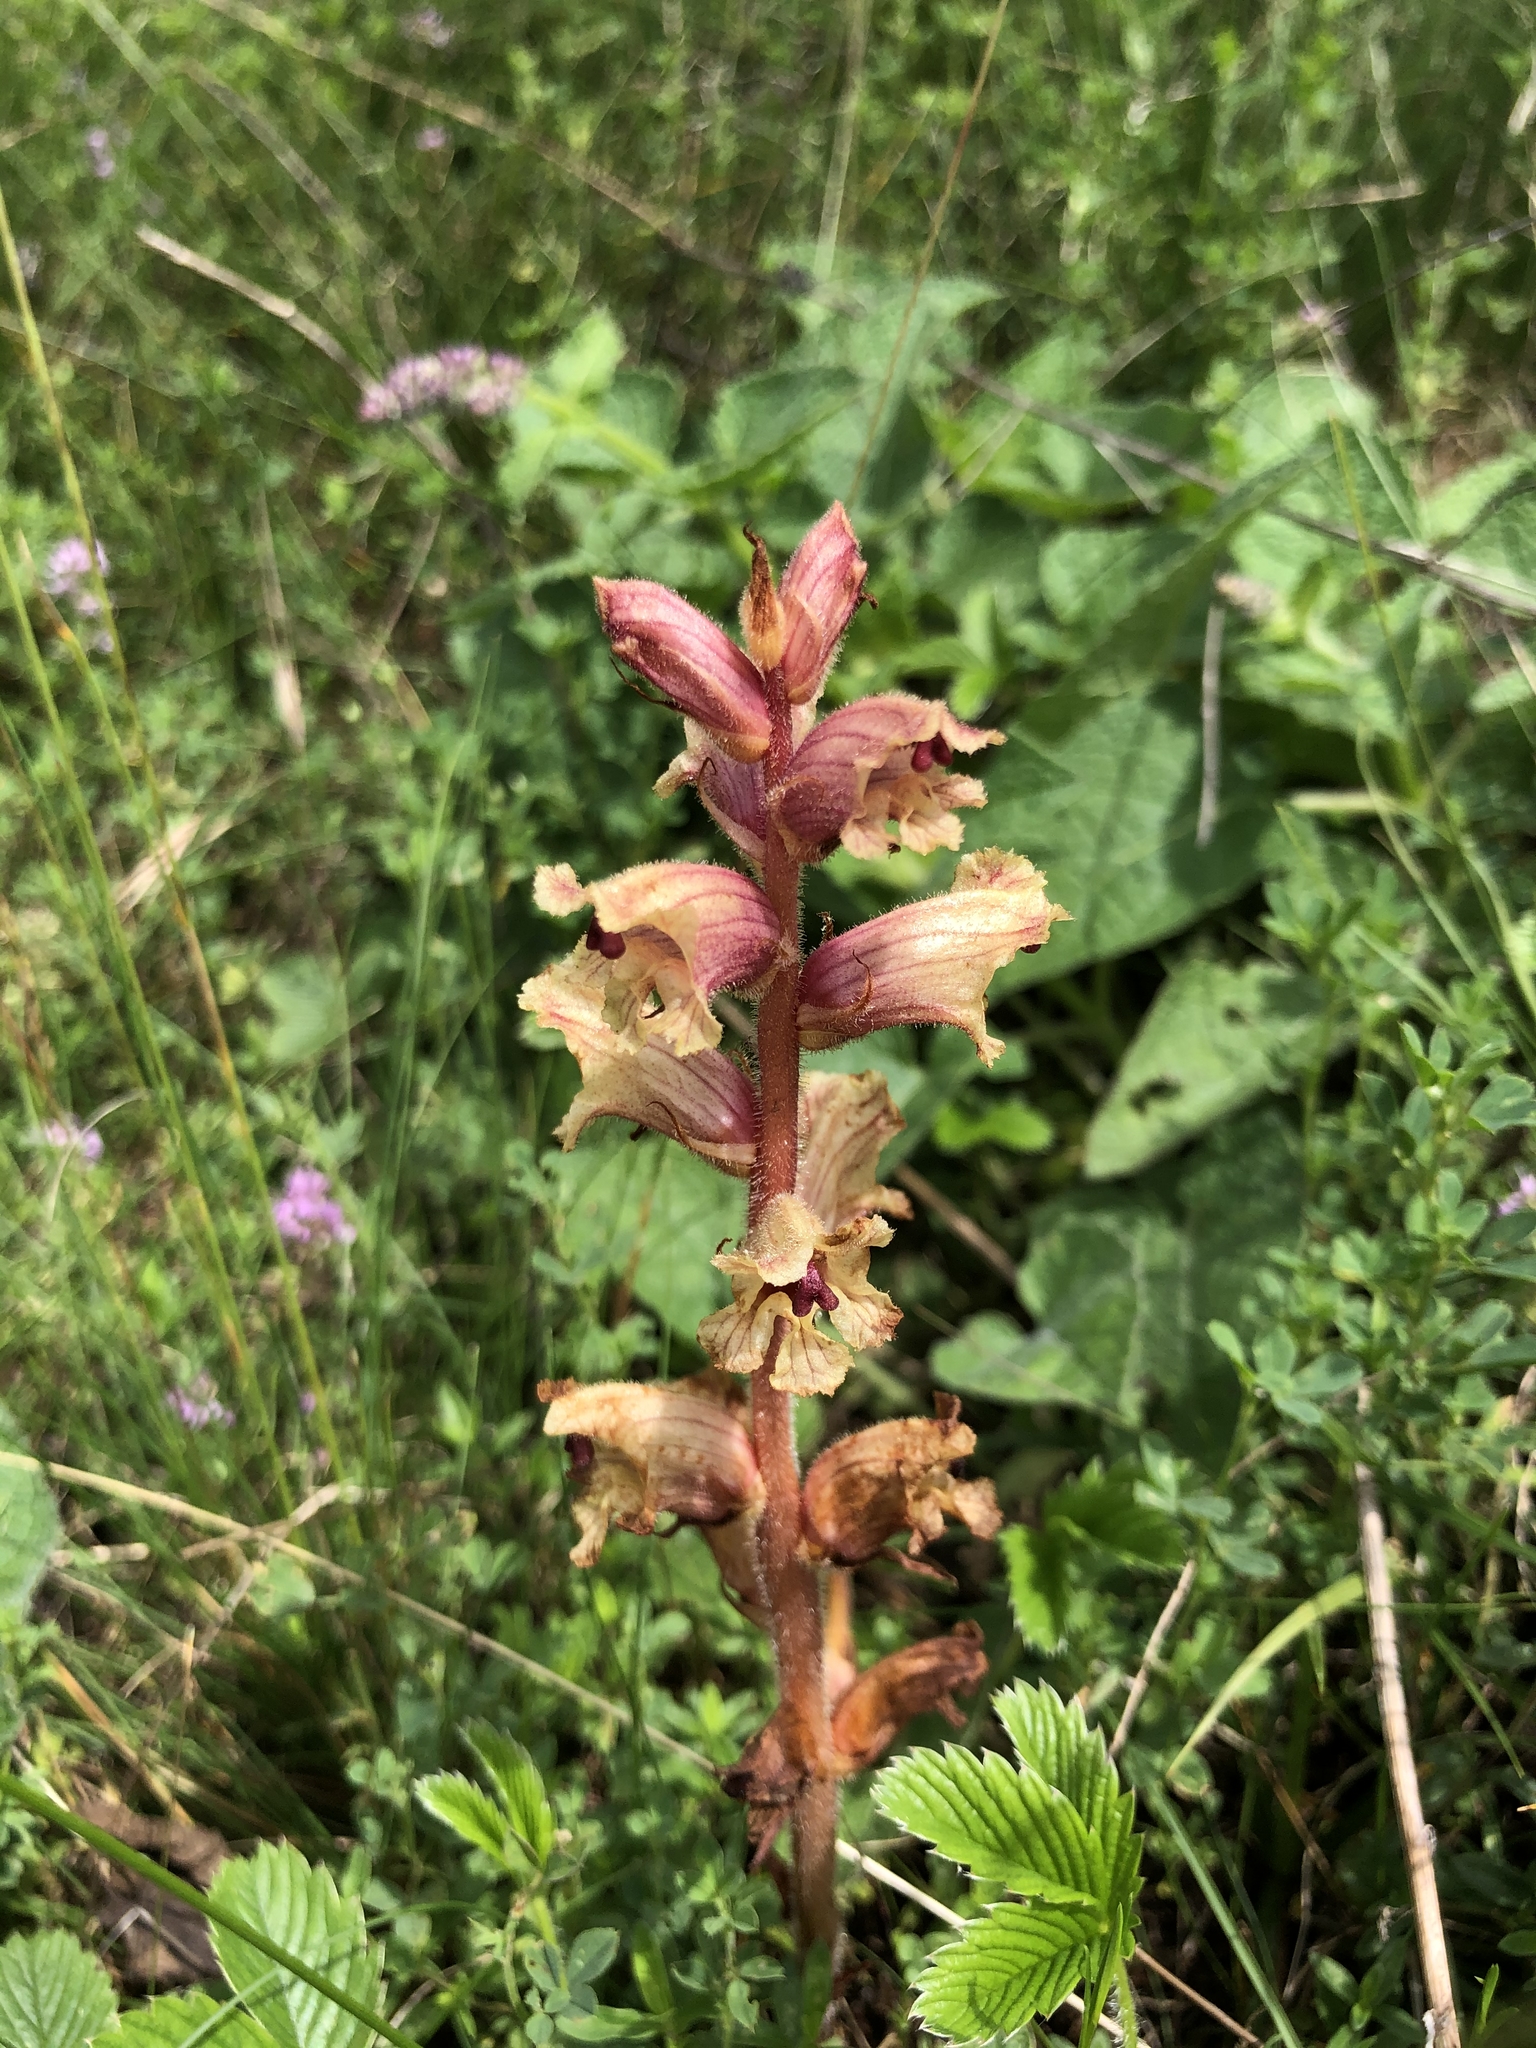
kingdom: Plantae
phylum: Tracheophyta
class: Magnoliopsida
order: Lamiales
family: Orobanchaceae
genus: Orobanche
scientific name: Orobanche alba
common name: Thyme broomrape
